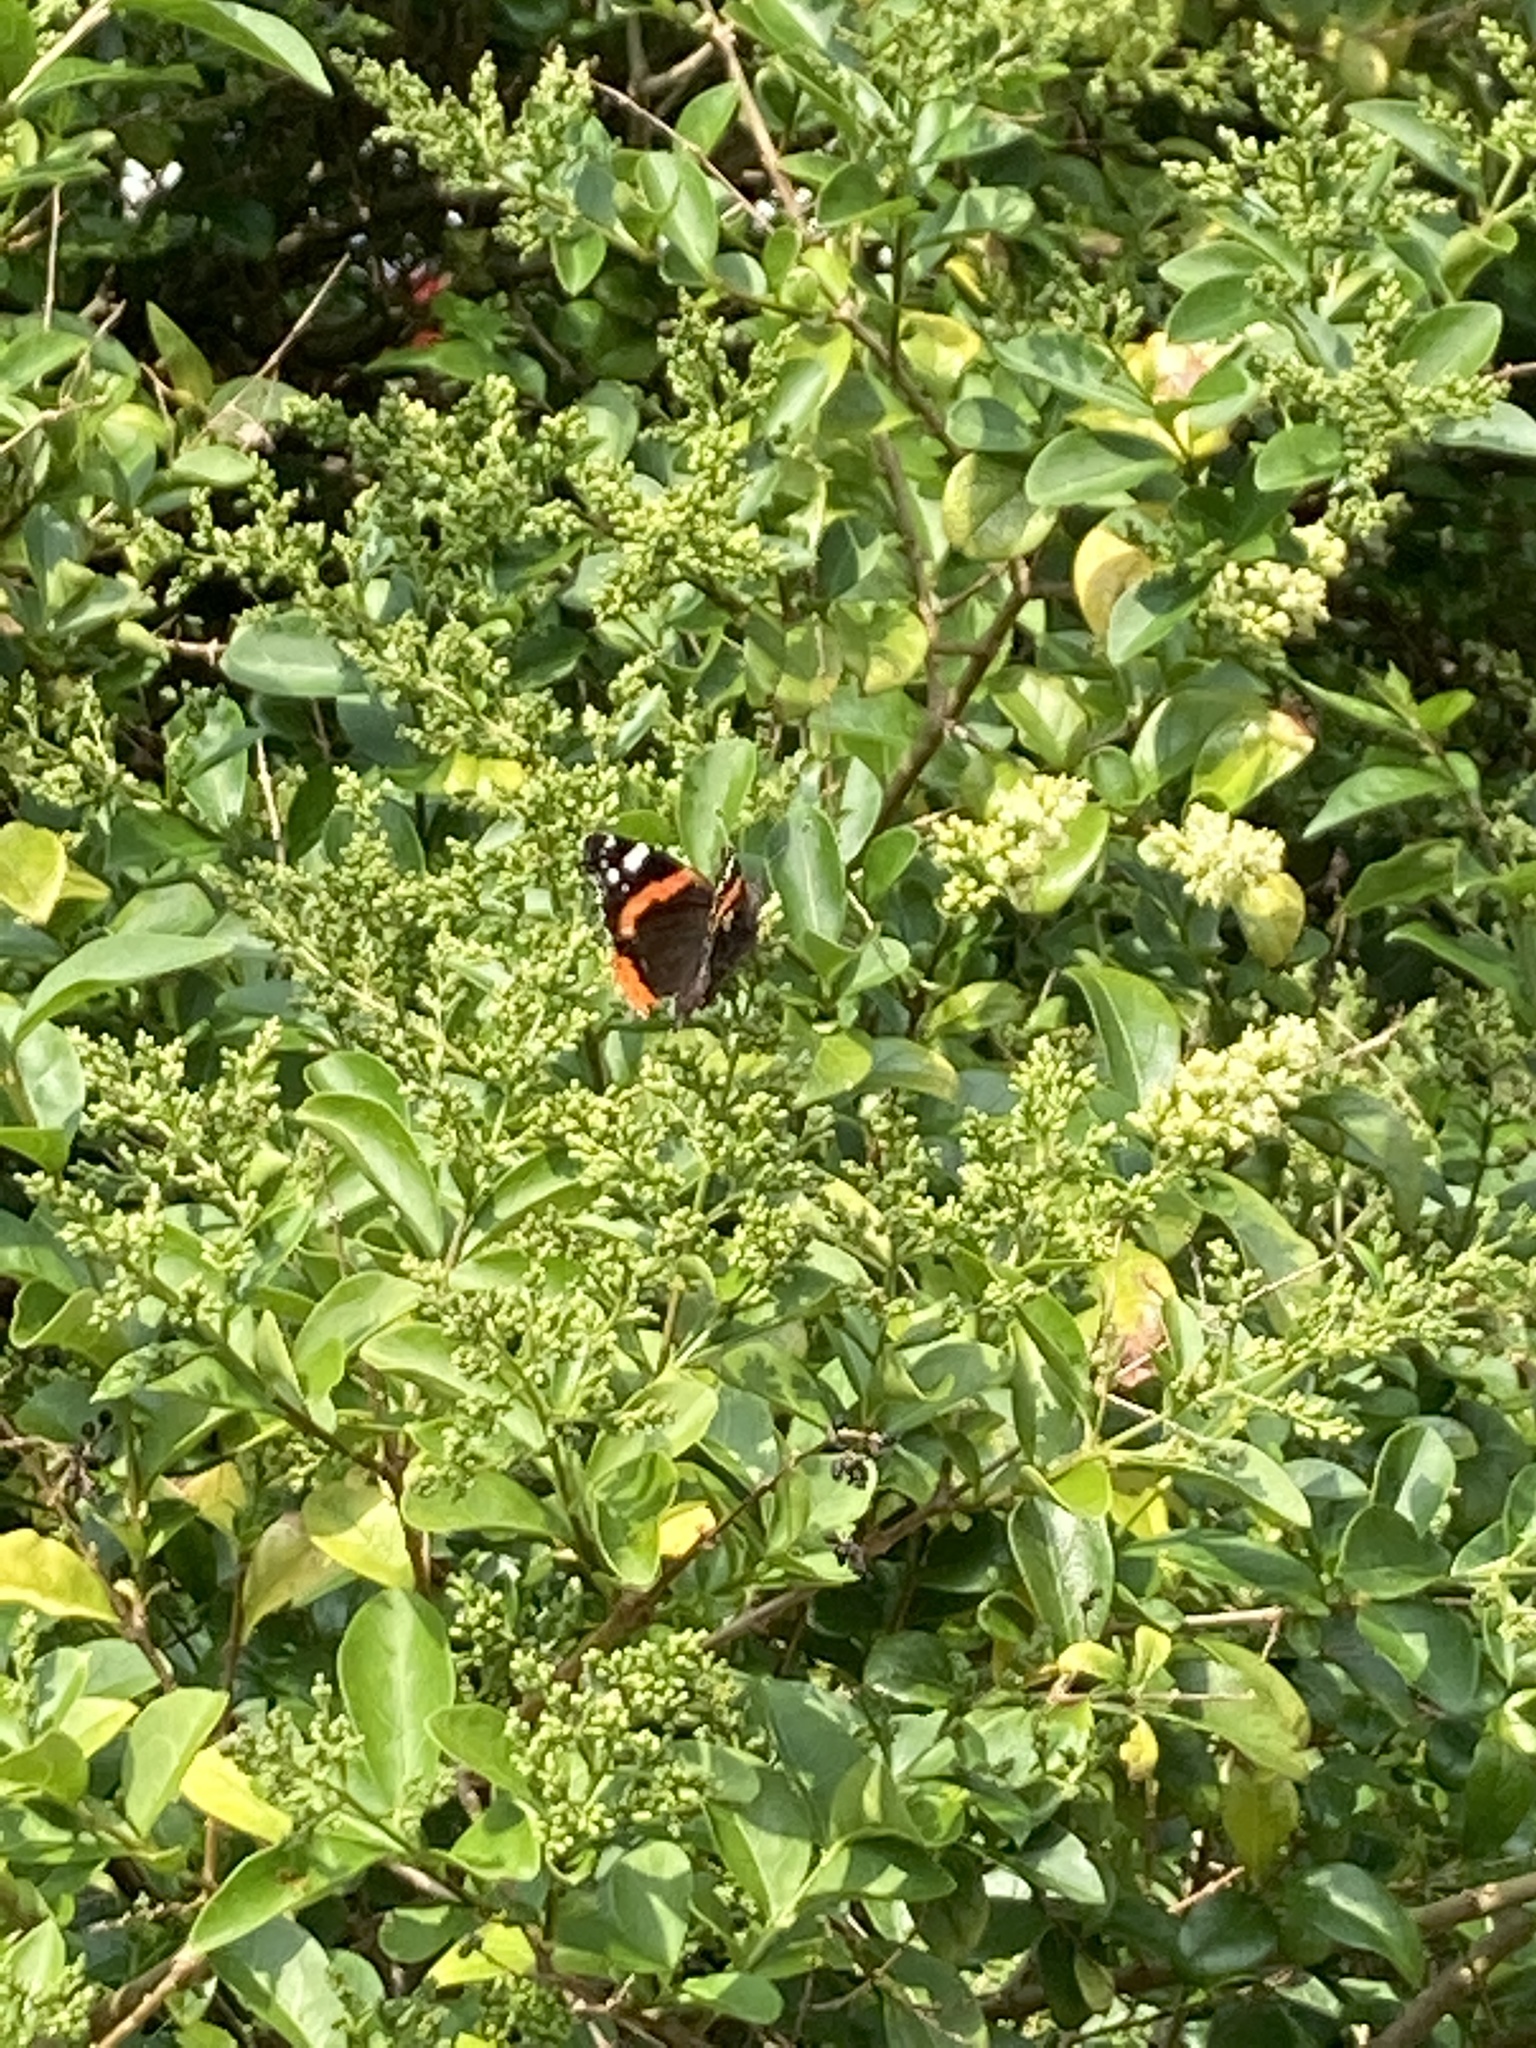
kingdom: Animalia
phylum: Arthropoda
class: Insecta
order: Lepidoptera
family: Nymphalidae
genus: Vanessa
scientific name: Vanessa atalanta
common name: Red admiral
